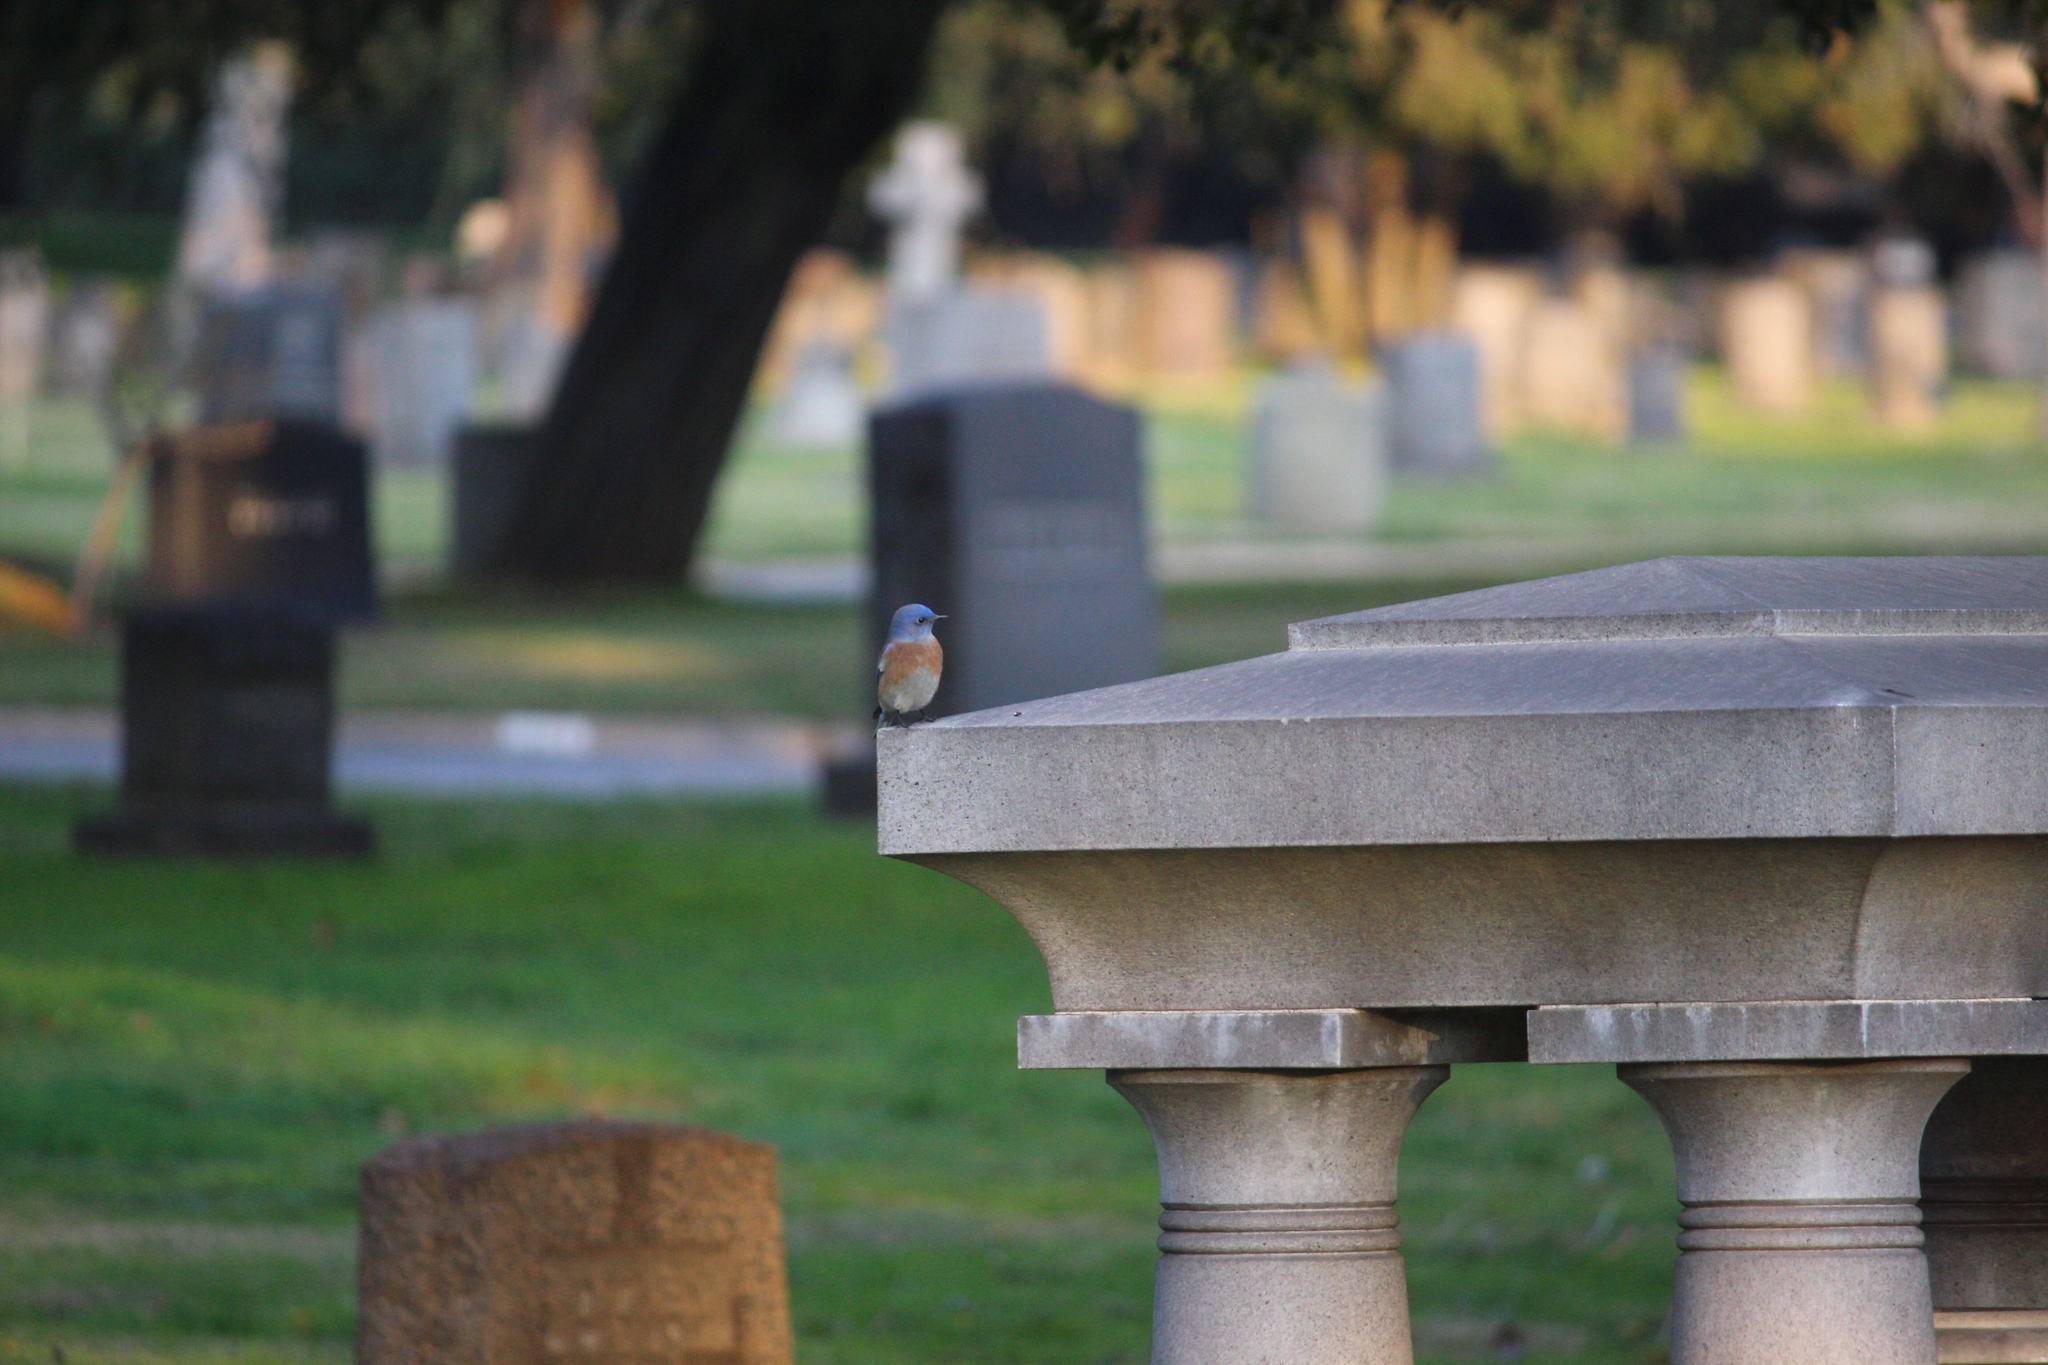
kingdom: Animalia
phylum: Chordata
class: Aves
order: Passeriformes
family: Turdidae
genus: Sialia
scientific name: Sialia mexicana
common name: Western bluebird
